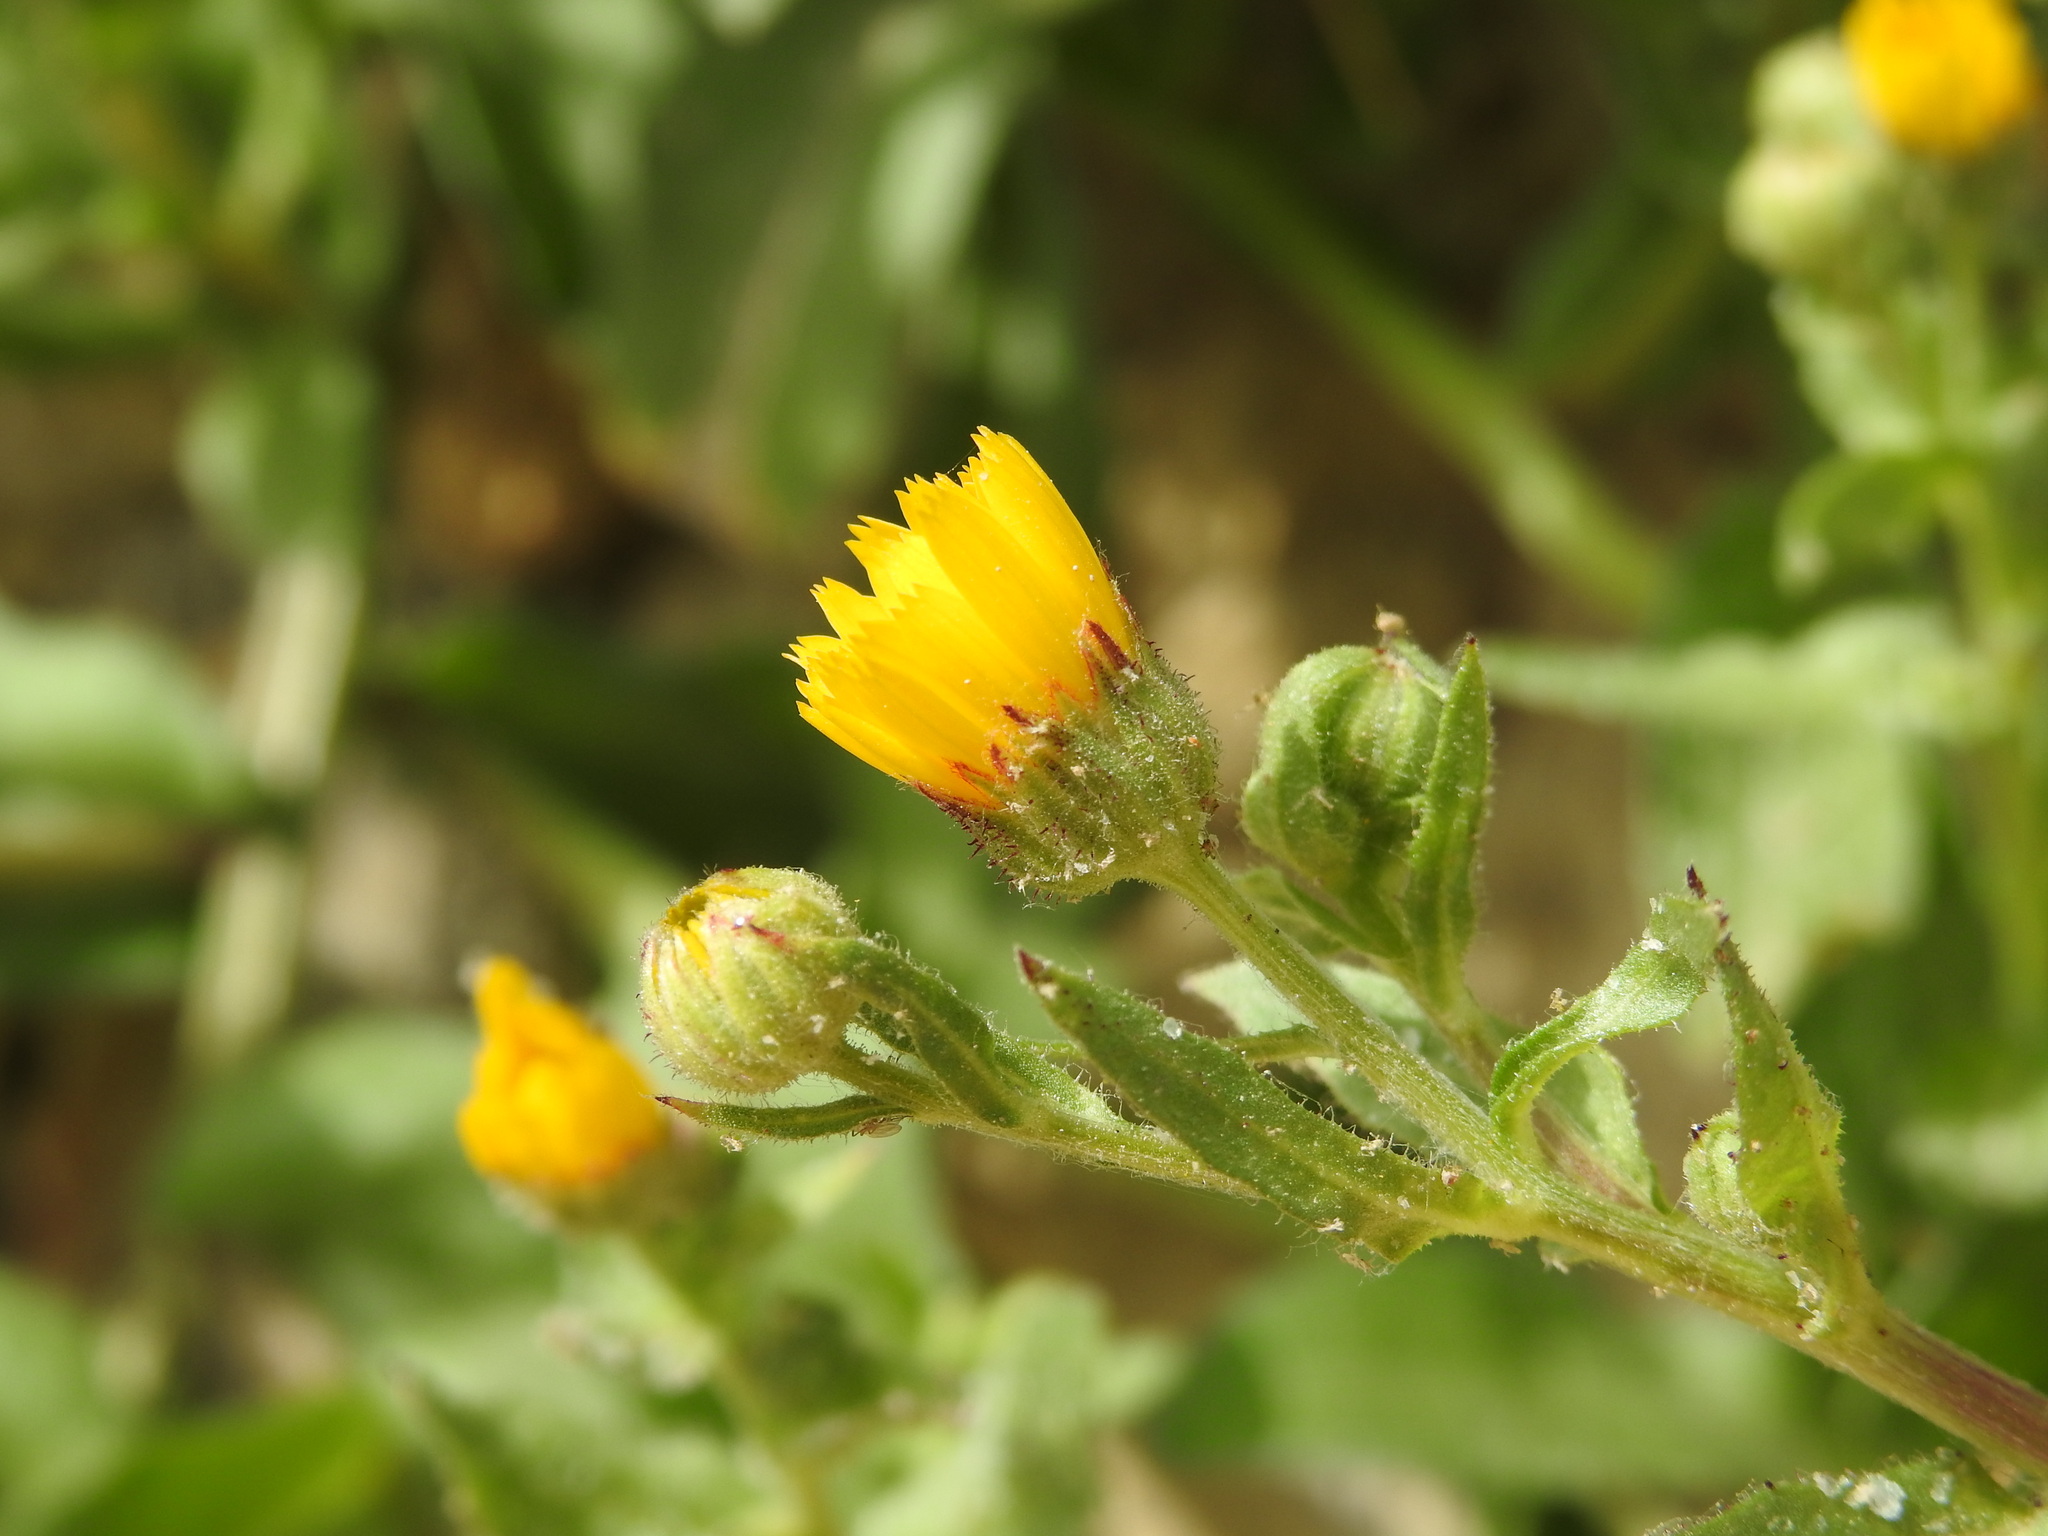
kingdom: Plantae
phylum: Tracheophyta
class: Magnoliopsida
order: Asterales
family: Asteraceae
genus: Calendula
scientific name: Calendula arvensis
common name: Field marigold
